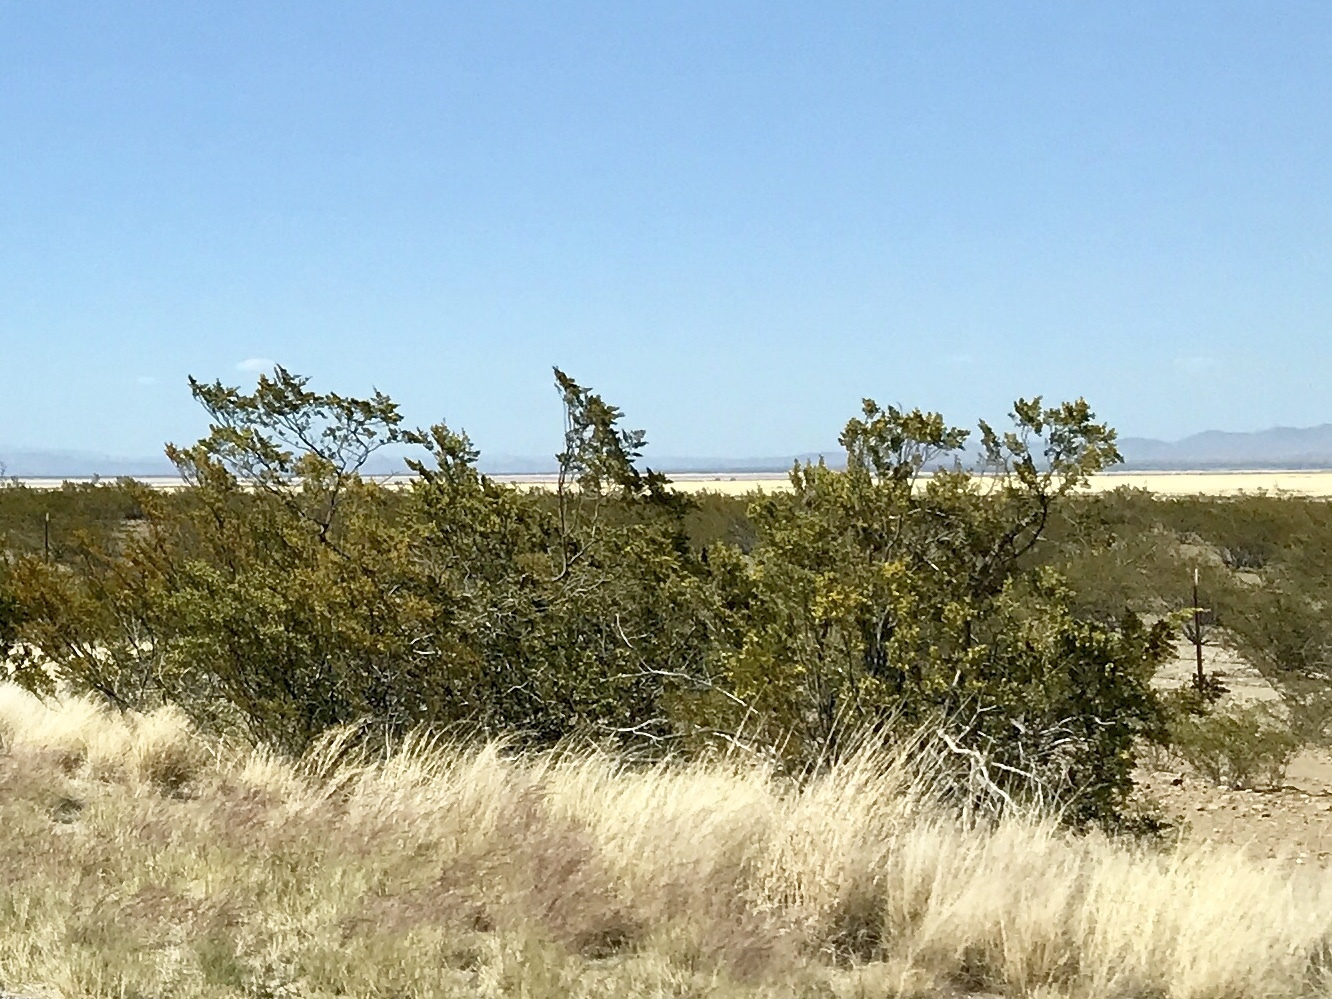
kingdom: Plantae
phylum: Tracheophyta
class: Magnoliopsida
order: Zygophyllales
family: Zygophyllaceae
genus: Larrea
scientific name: Larrea tridentata
